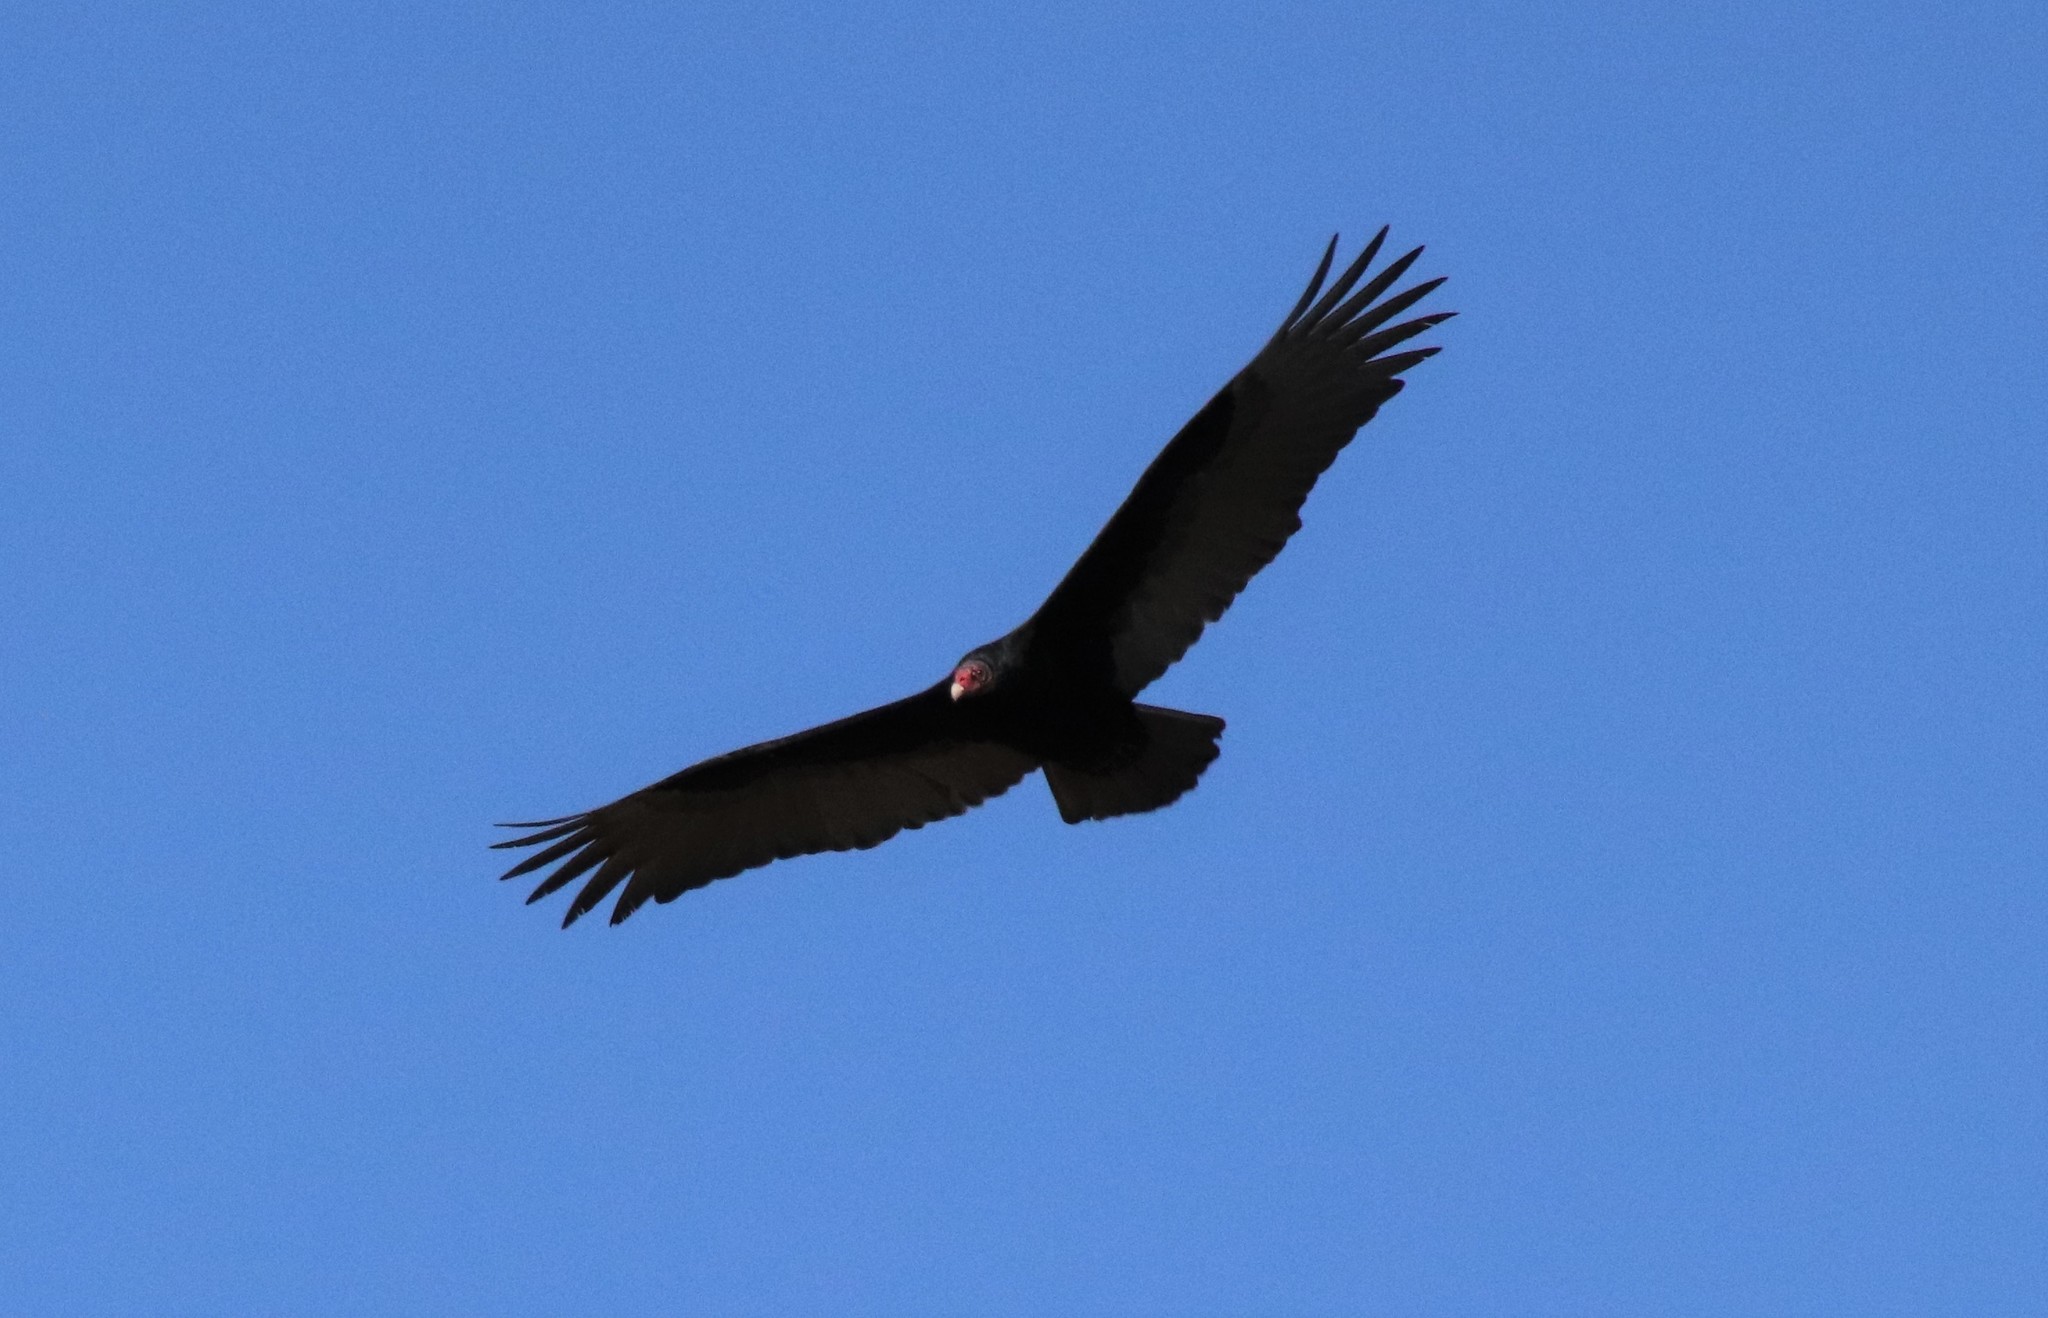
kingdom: Animalia
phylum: Chordata
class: Aves
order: Accipitriformes
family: Cathartidae
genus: Cathartes
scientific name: Cathartes aura
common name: Turkey vulture
